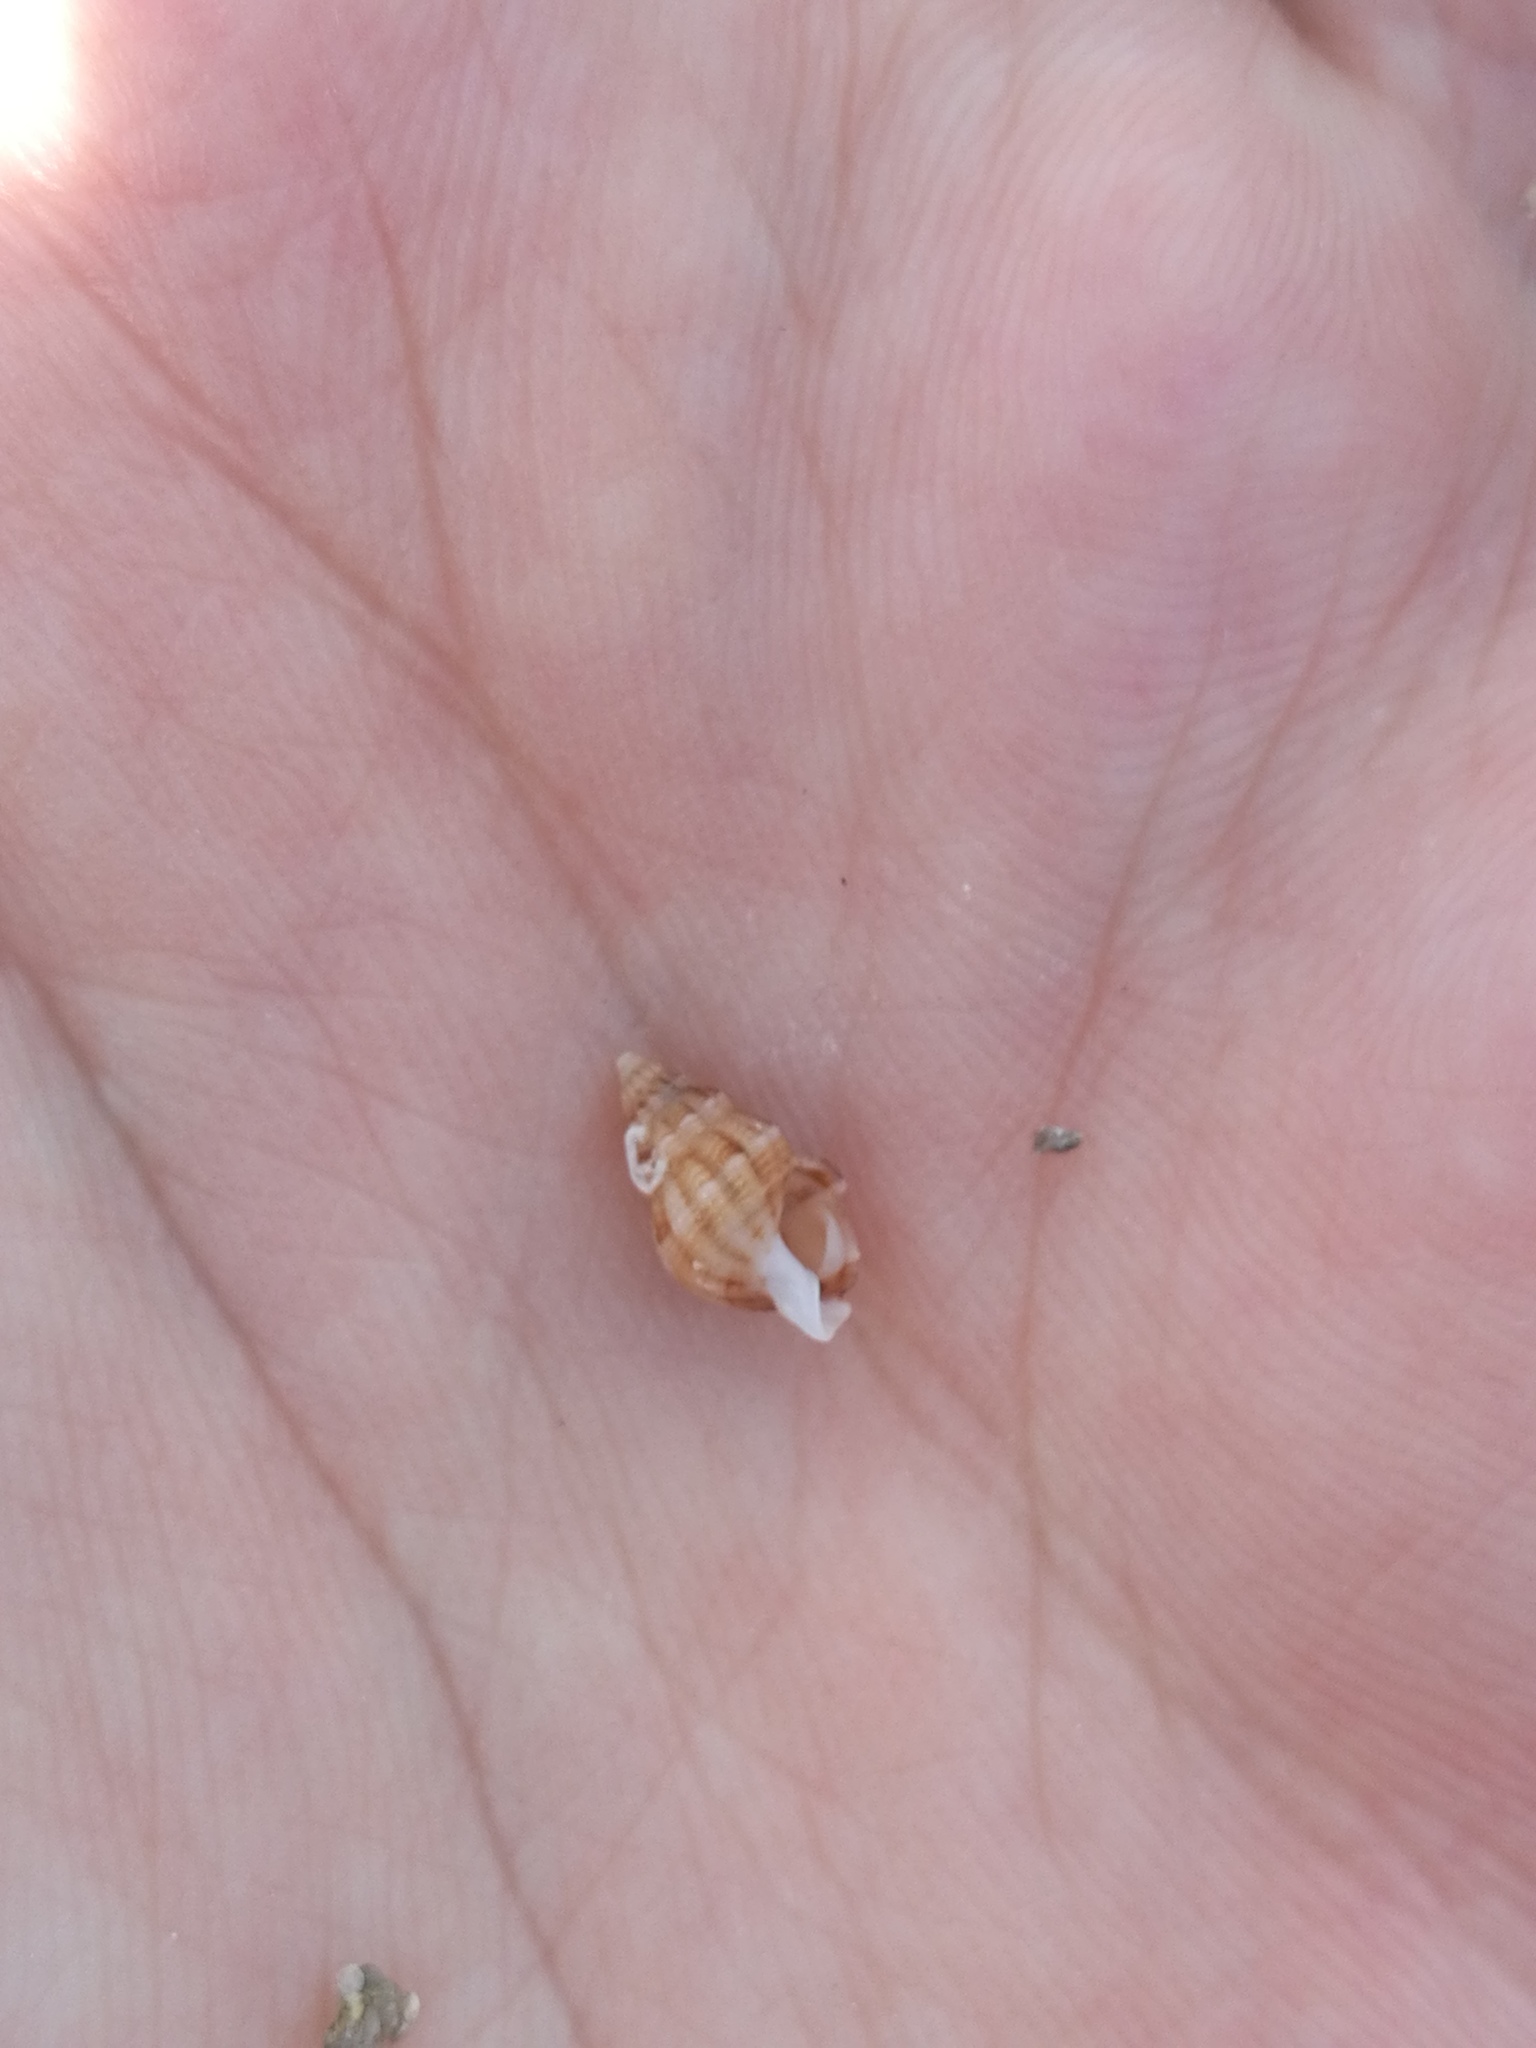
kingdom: Animalia
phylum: Mollusca
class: Gastropoda
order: Neogastropoda
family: Nassariidae
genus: Tritia
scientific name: Tritia incrassata
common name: Thick-lipped dog whelk
